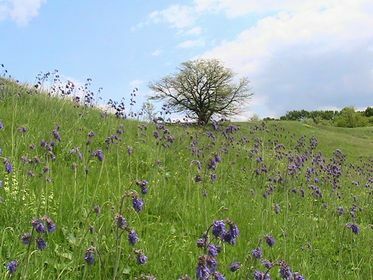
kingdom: Plantae
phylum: Tracheophyta
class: Magnoliopsida
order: Lamiales
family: Lamiaceae
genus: Salvia
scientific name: Salvia nutans
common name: Nodding sage
